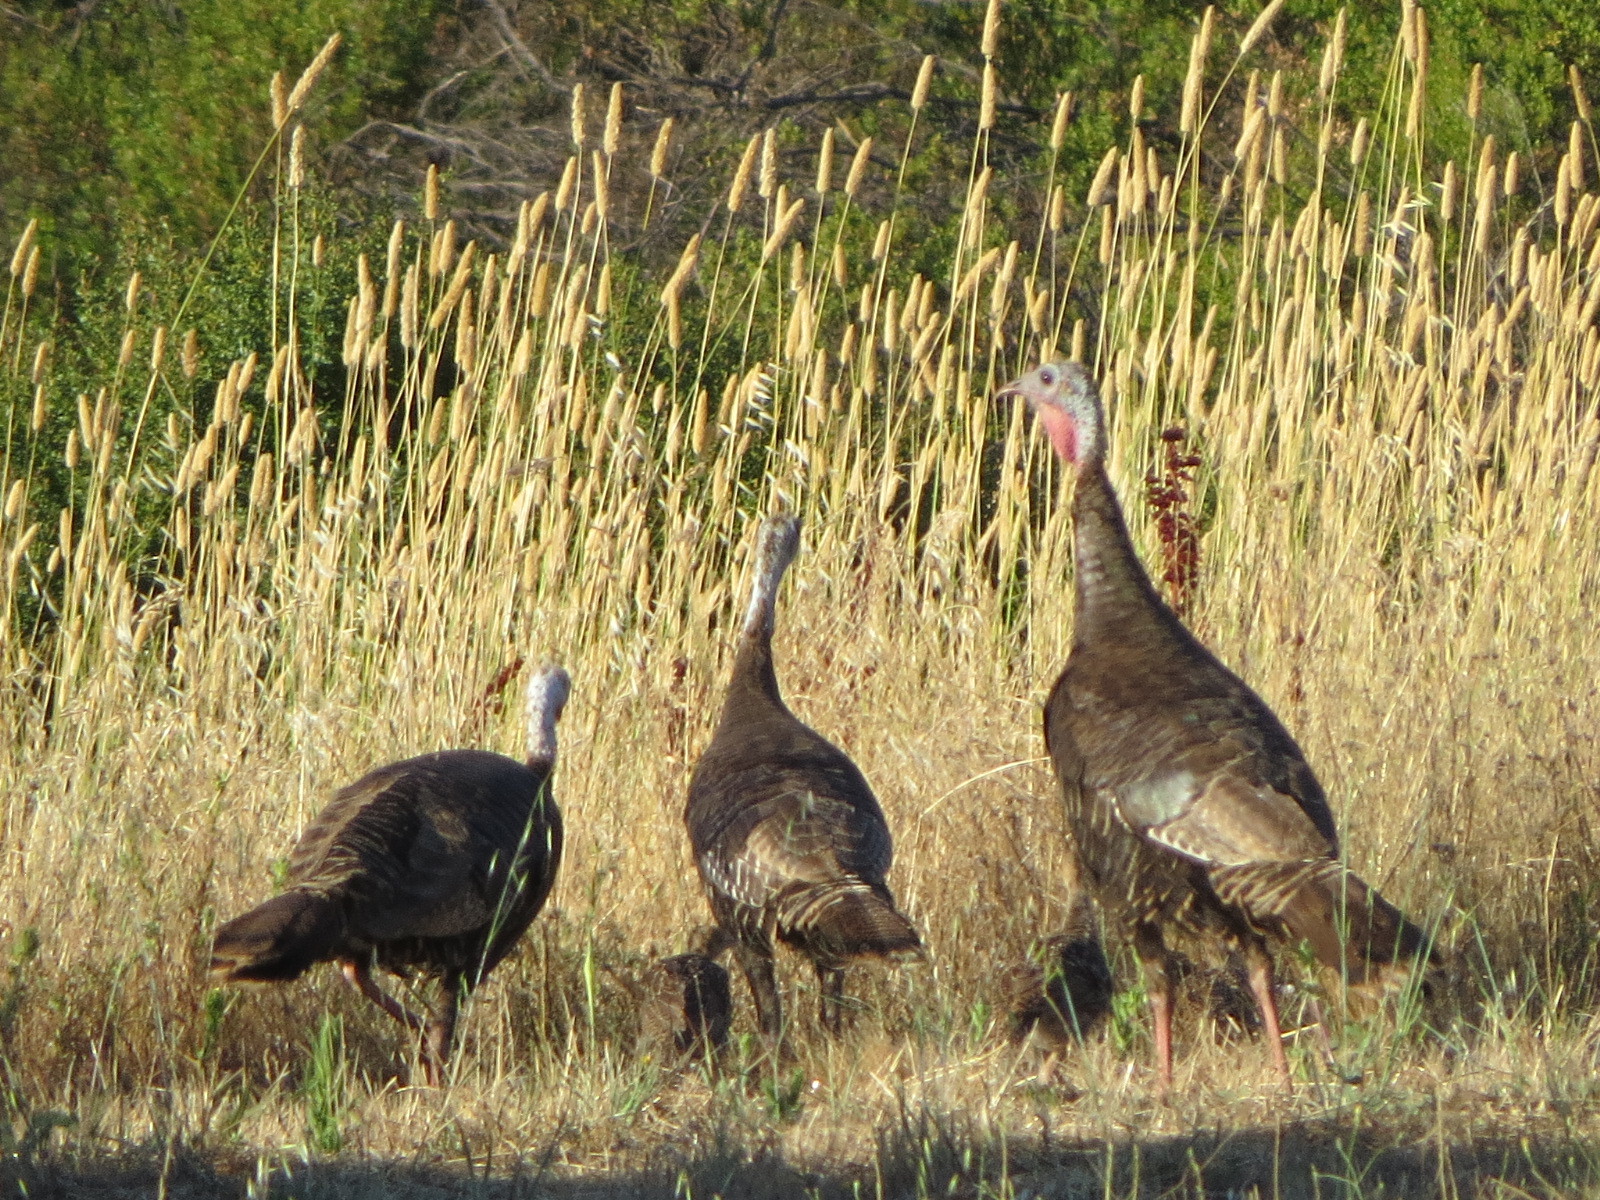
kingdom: Animalia
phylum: Chordata
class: Aves
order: Galliformes
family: Phasianidae
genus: Meleagris
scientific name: Meleagris gallopavo
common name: Wild turkey
